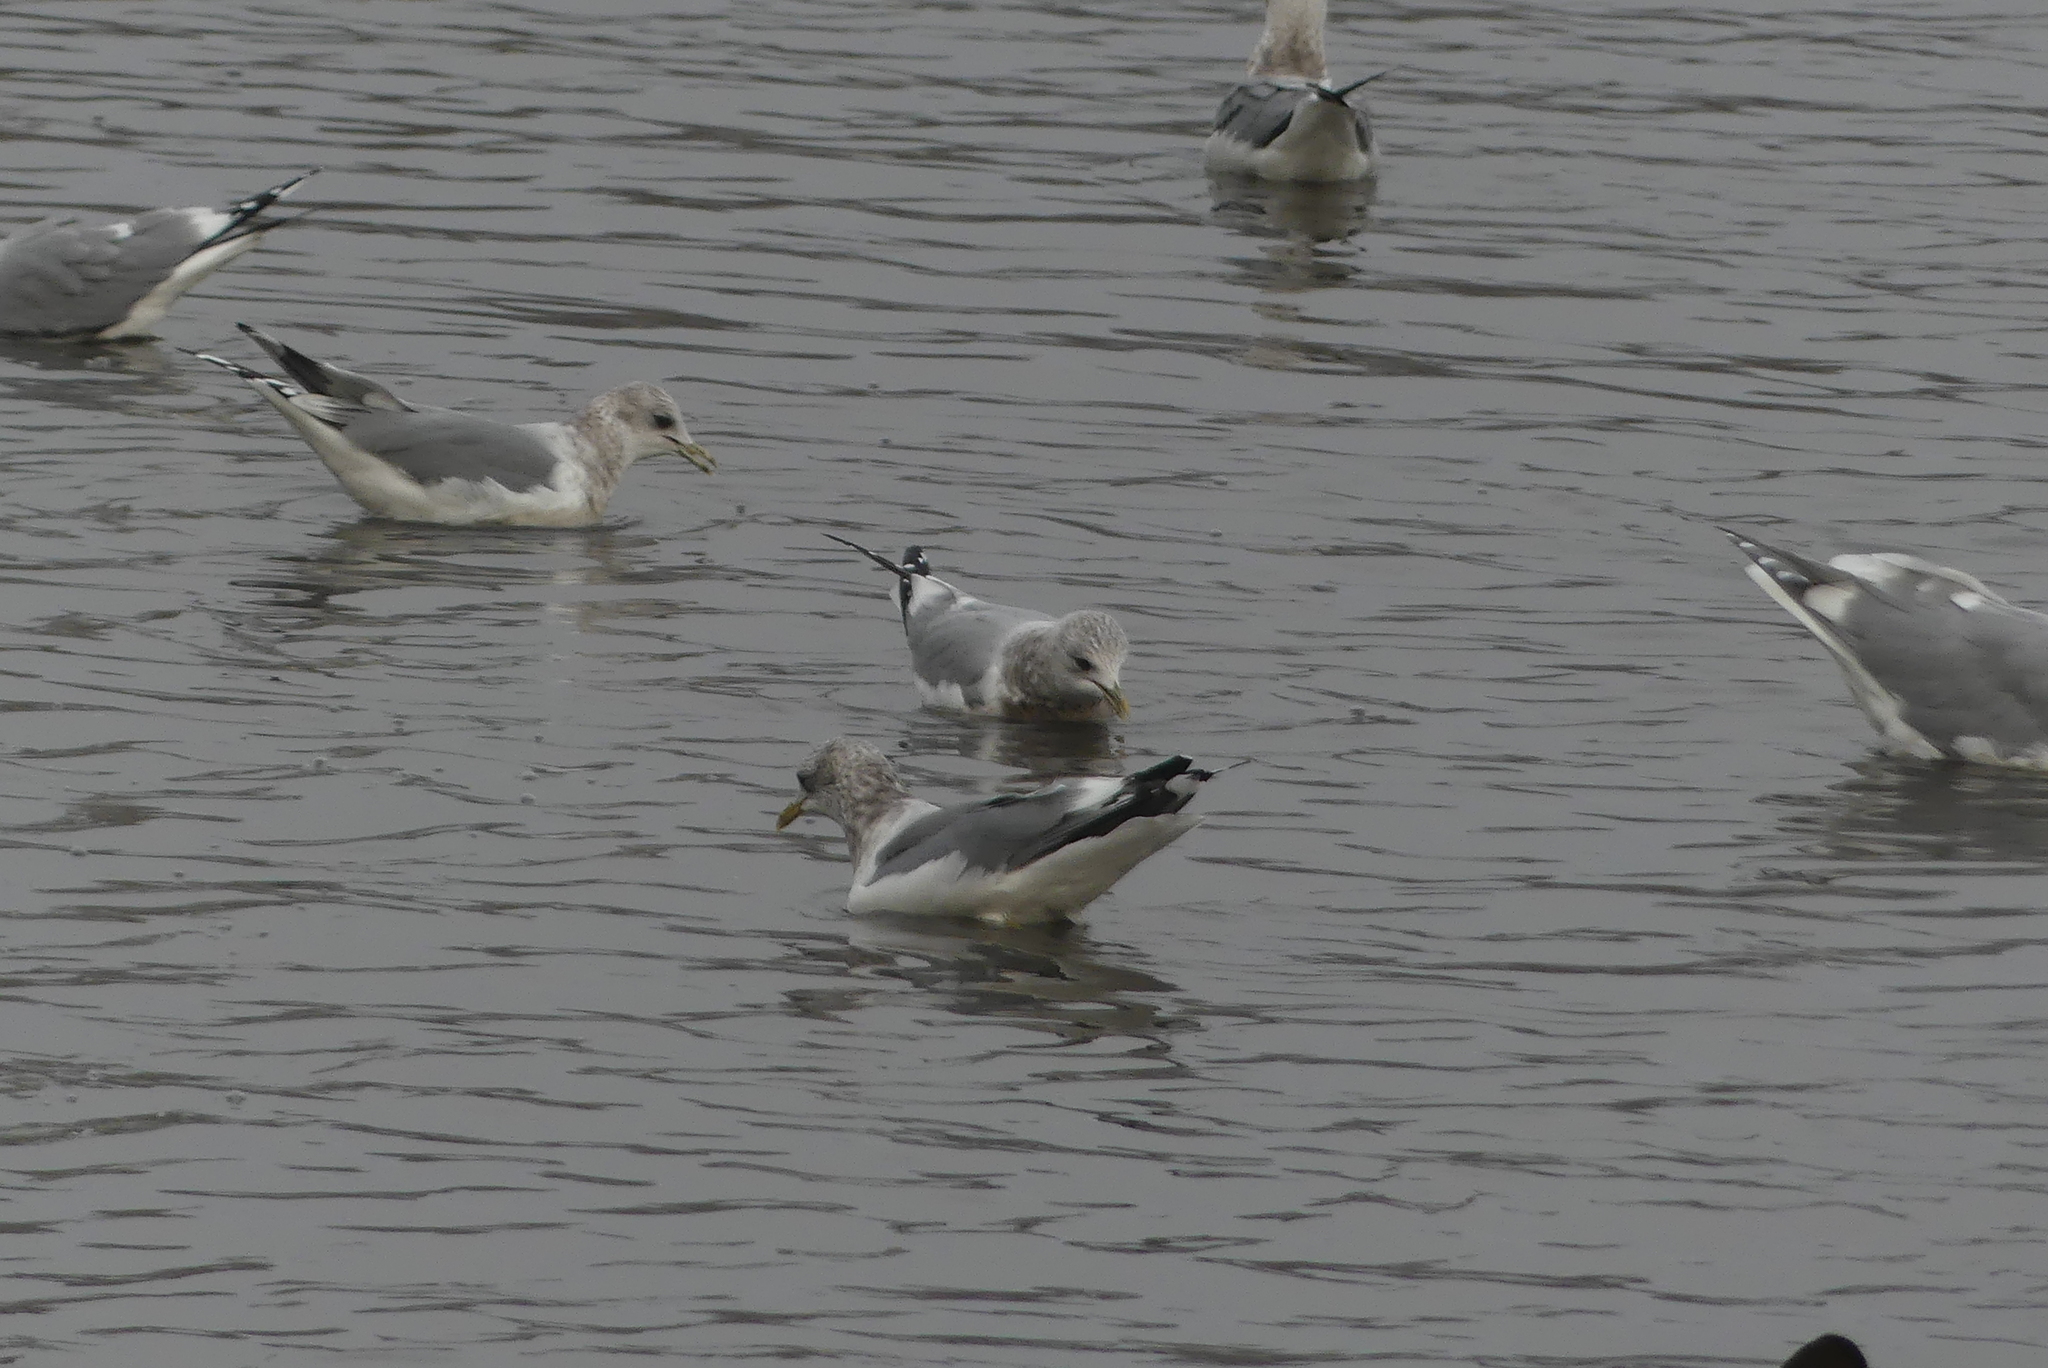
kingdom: Animalia
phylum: Chordata
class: Aves
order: Charadriiformes
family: Laridae
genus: Larus
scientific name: Larus brachyrhynchus
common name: Short-billed gull
